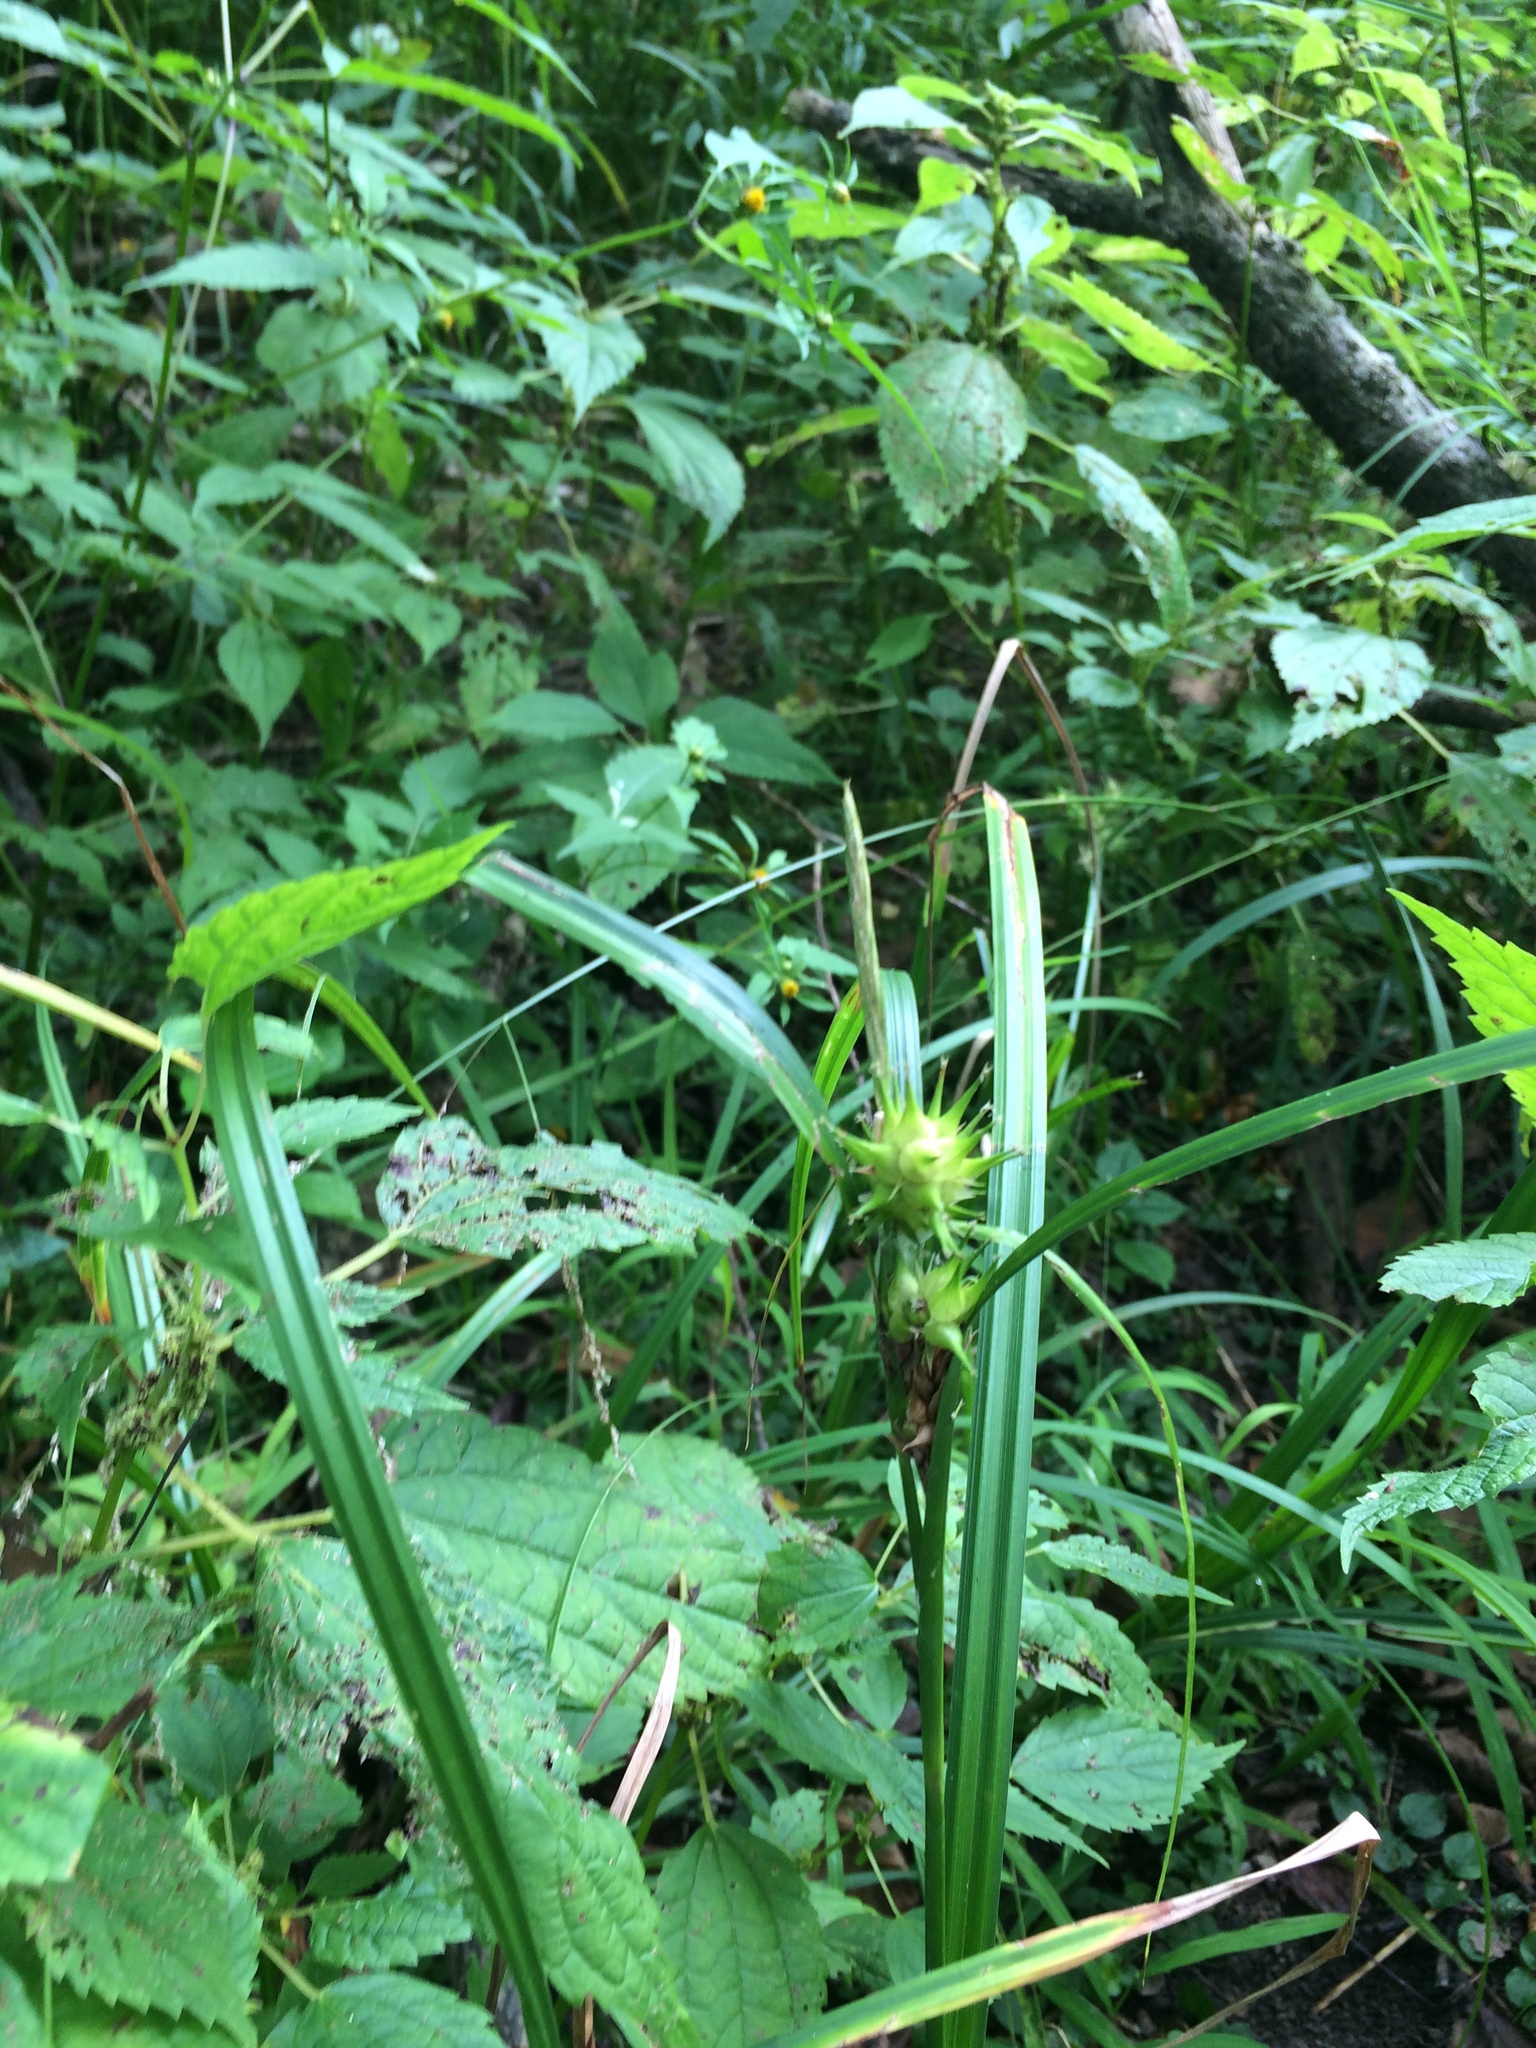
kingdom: Plantae
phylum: Tracheophyta
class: Liliopsida
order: Poales
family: Cyperaceae
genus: Carex
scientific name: Carex lupulina
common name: Hop sedge
